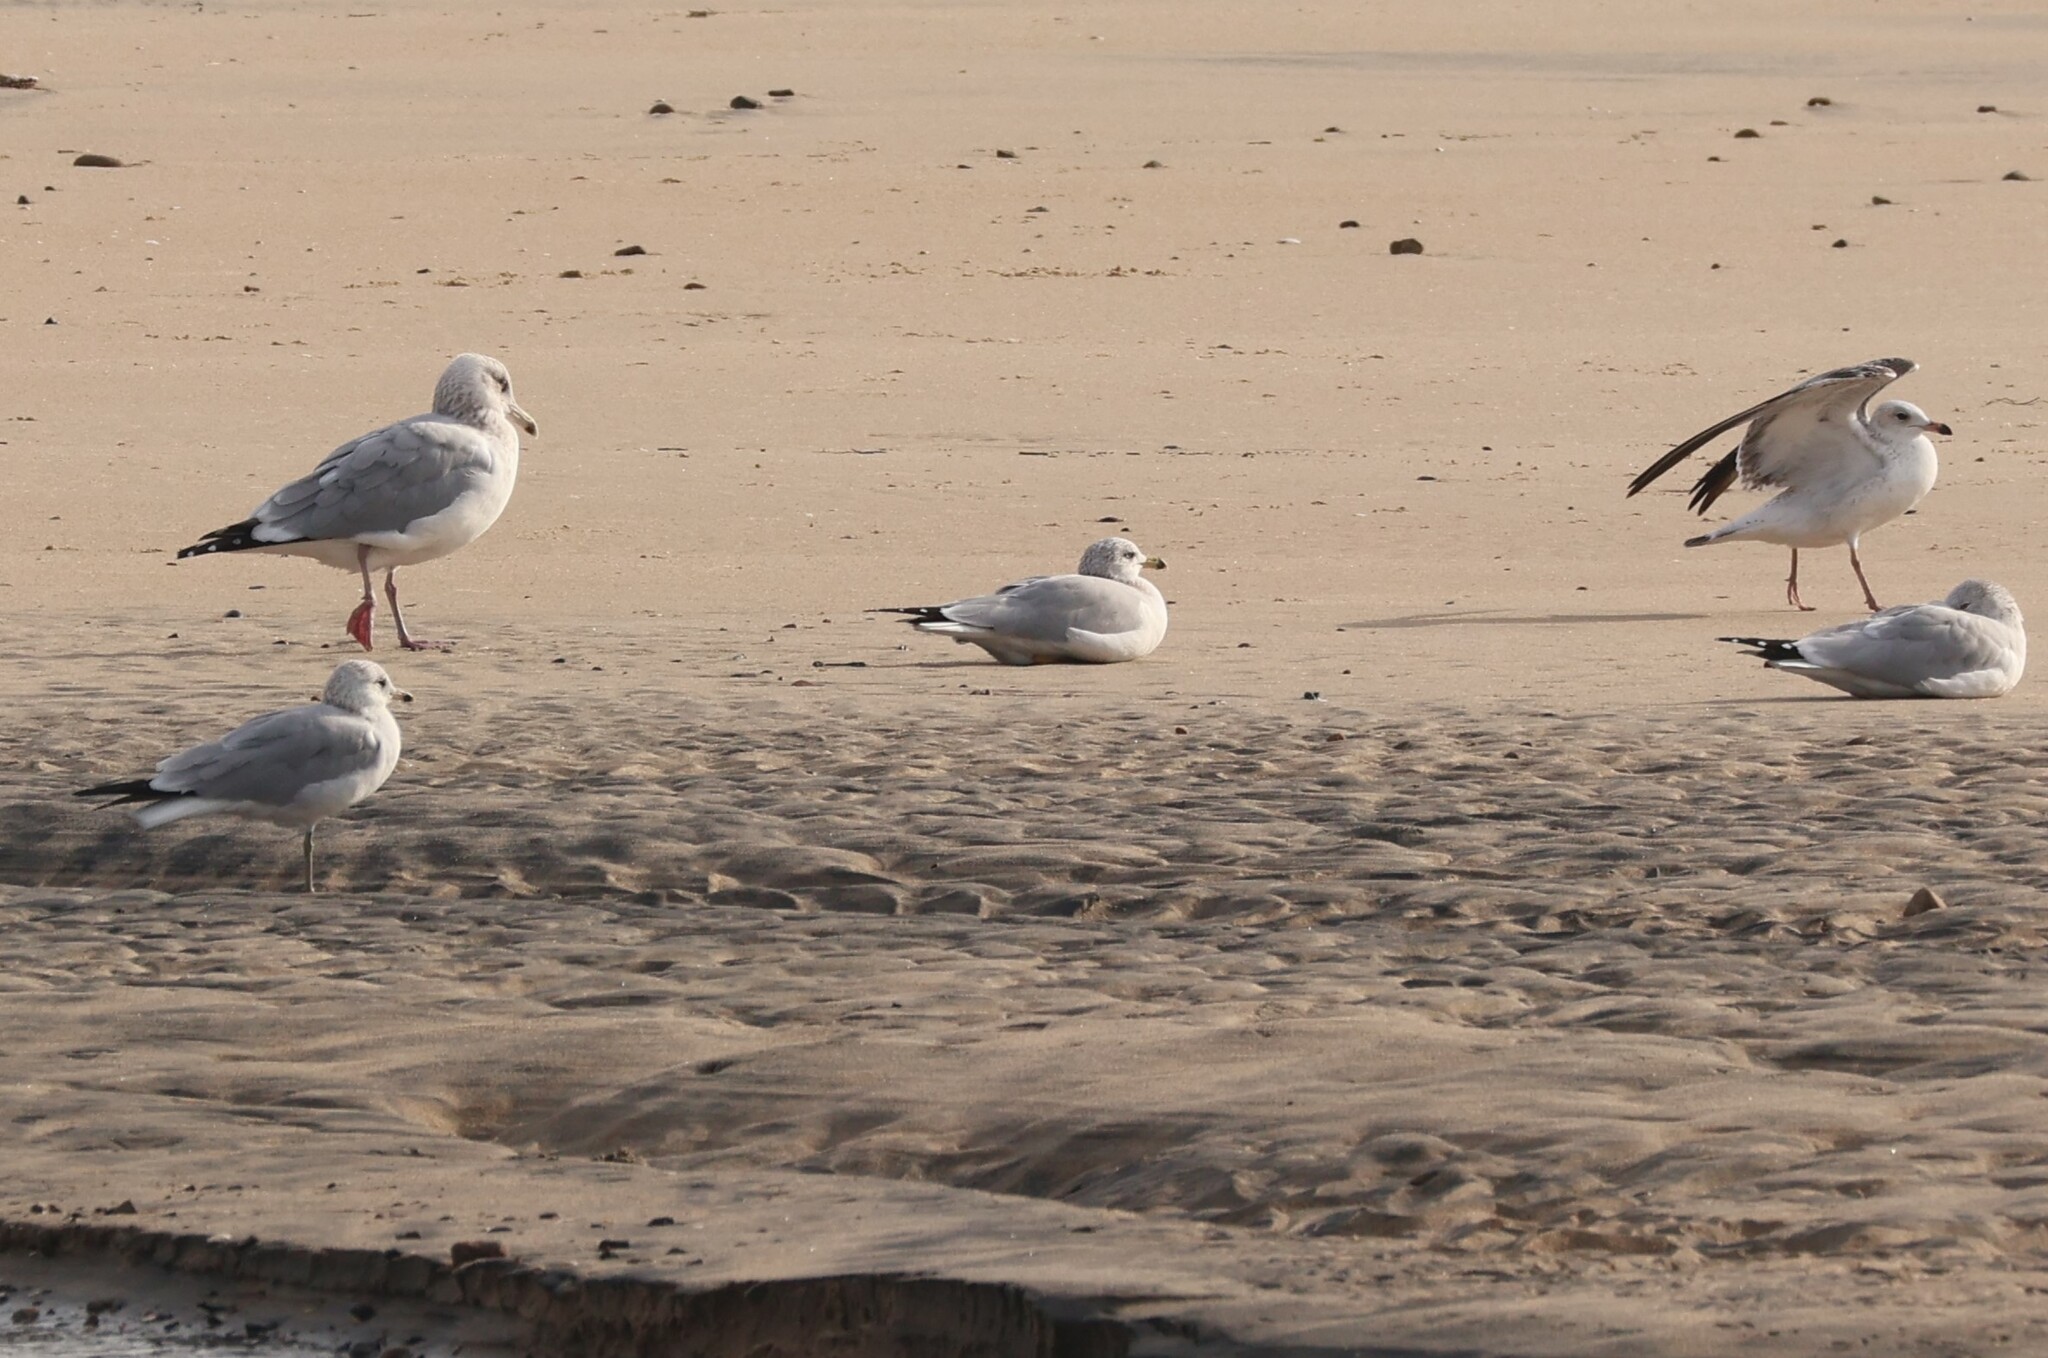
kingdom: Animalia
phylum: Chordata
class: Aves
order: Charadriiformes
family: Laridae
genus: Larus
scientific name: Larus delawarensis
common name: Ring-billed gull
